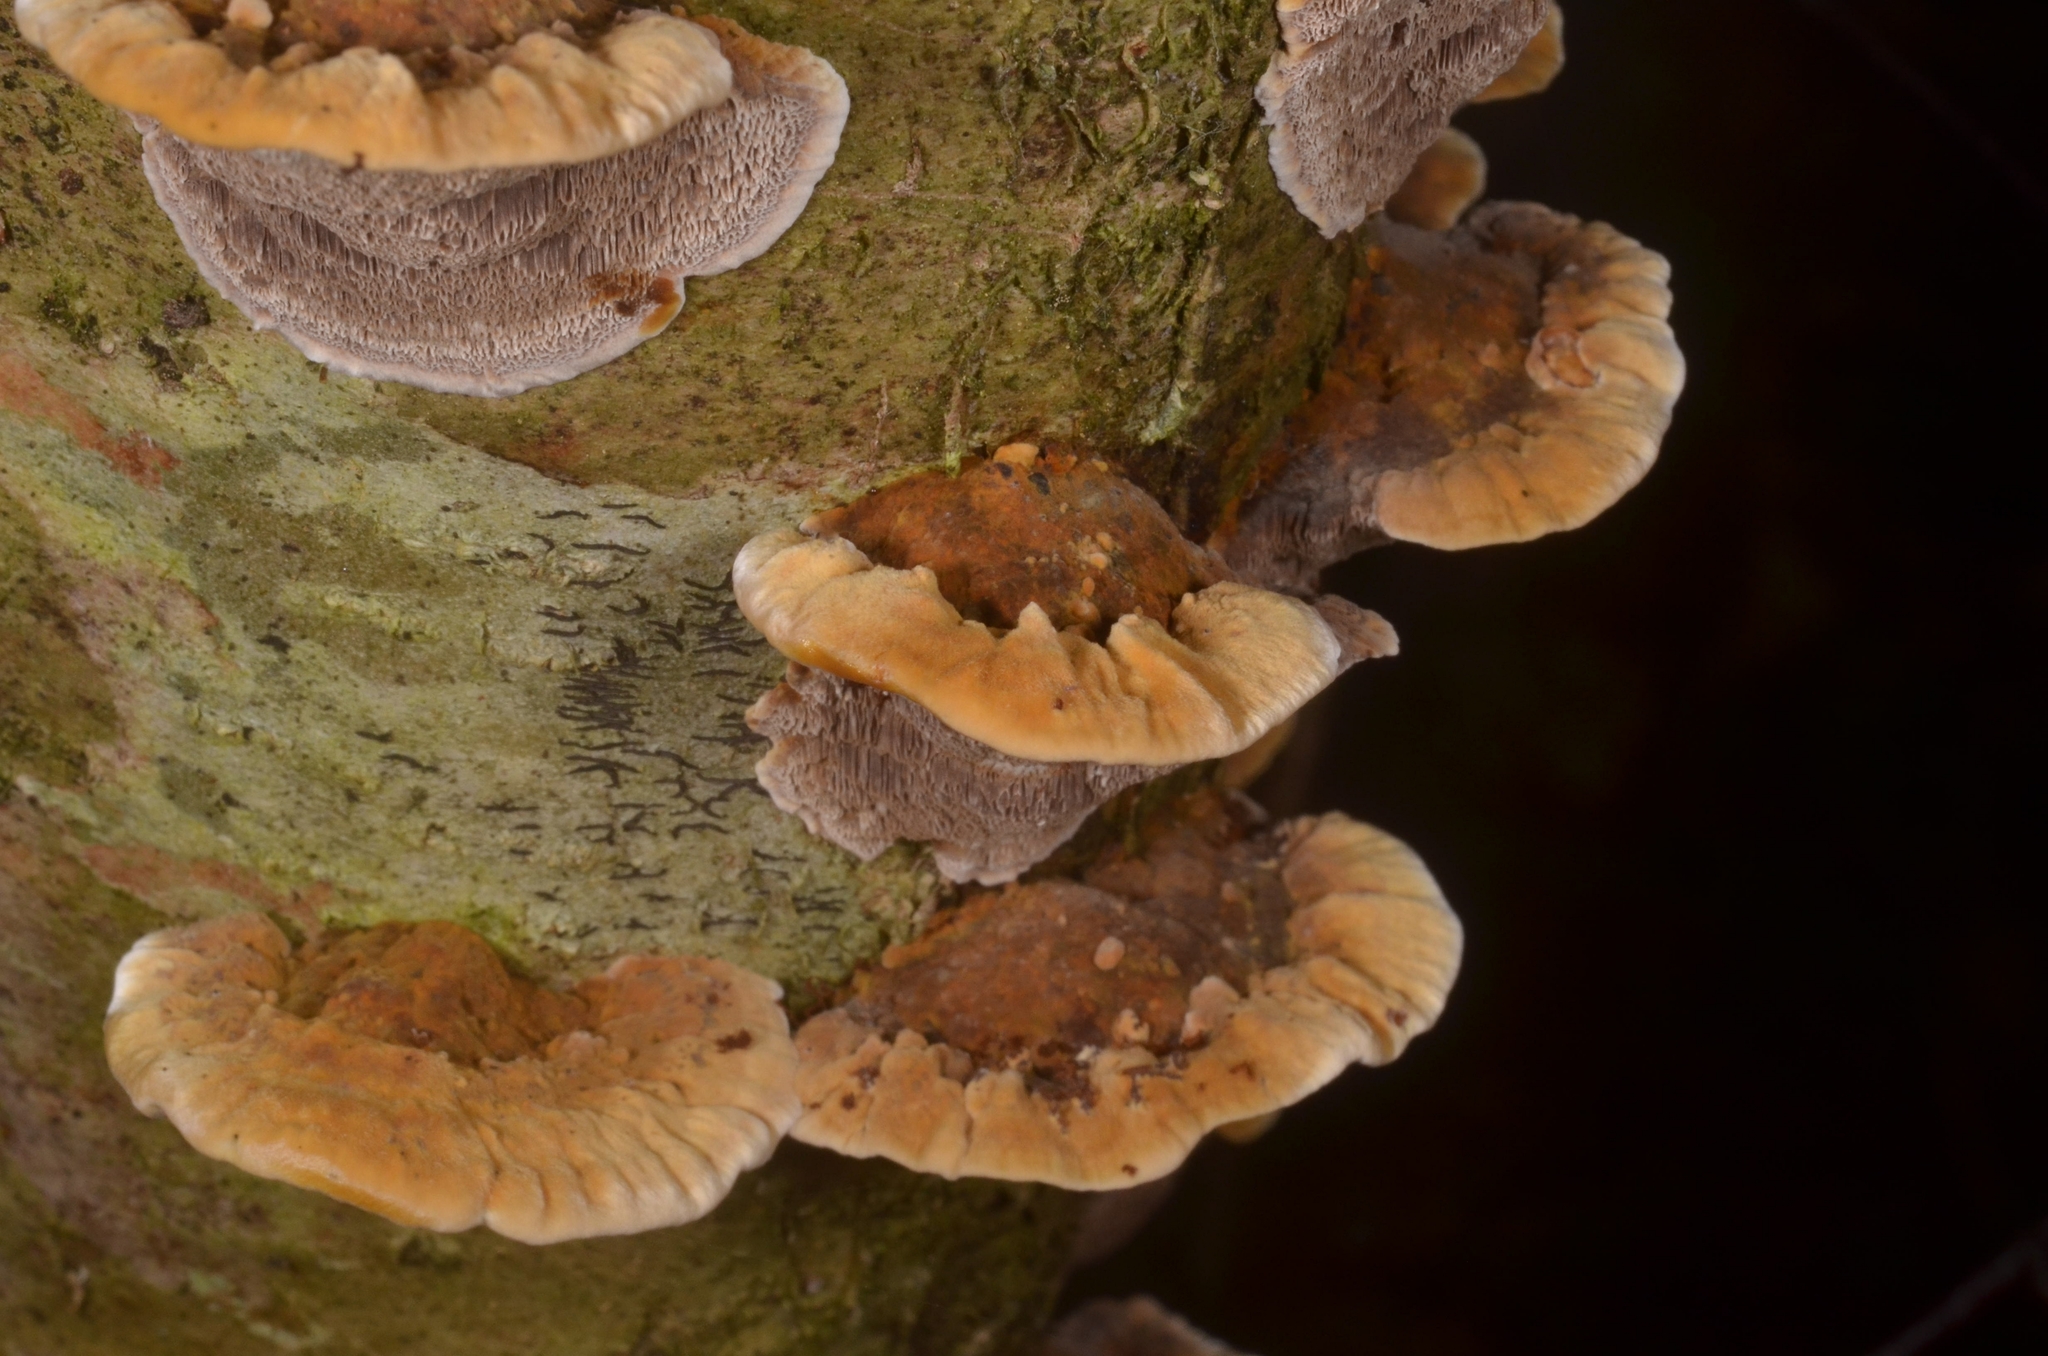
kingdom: Fungi
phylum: Basidiomycota
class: Agaricomycetes
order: Hymenochaetales
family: Hymenochaetaceae
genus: Xanthoporia
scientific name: Xanthoporia radiata
